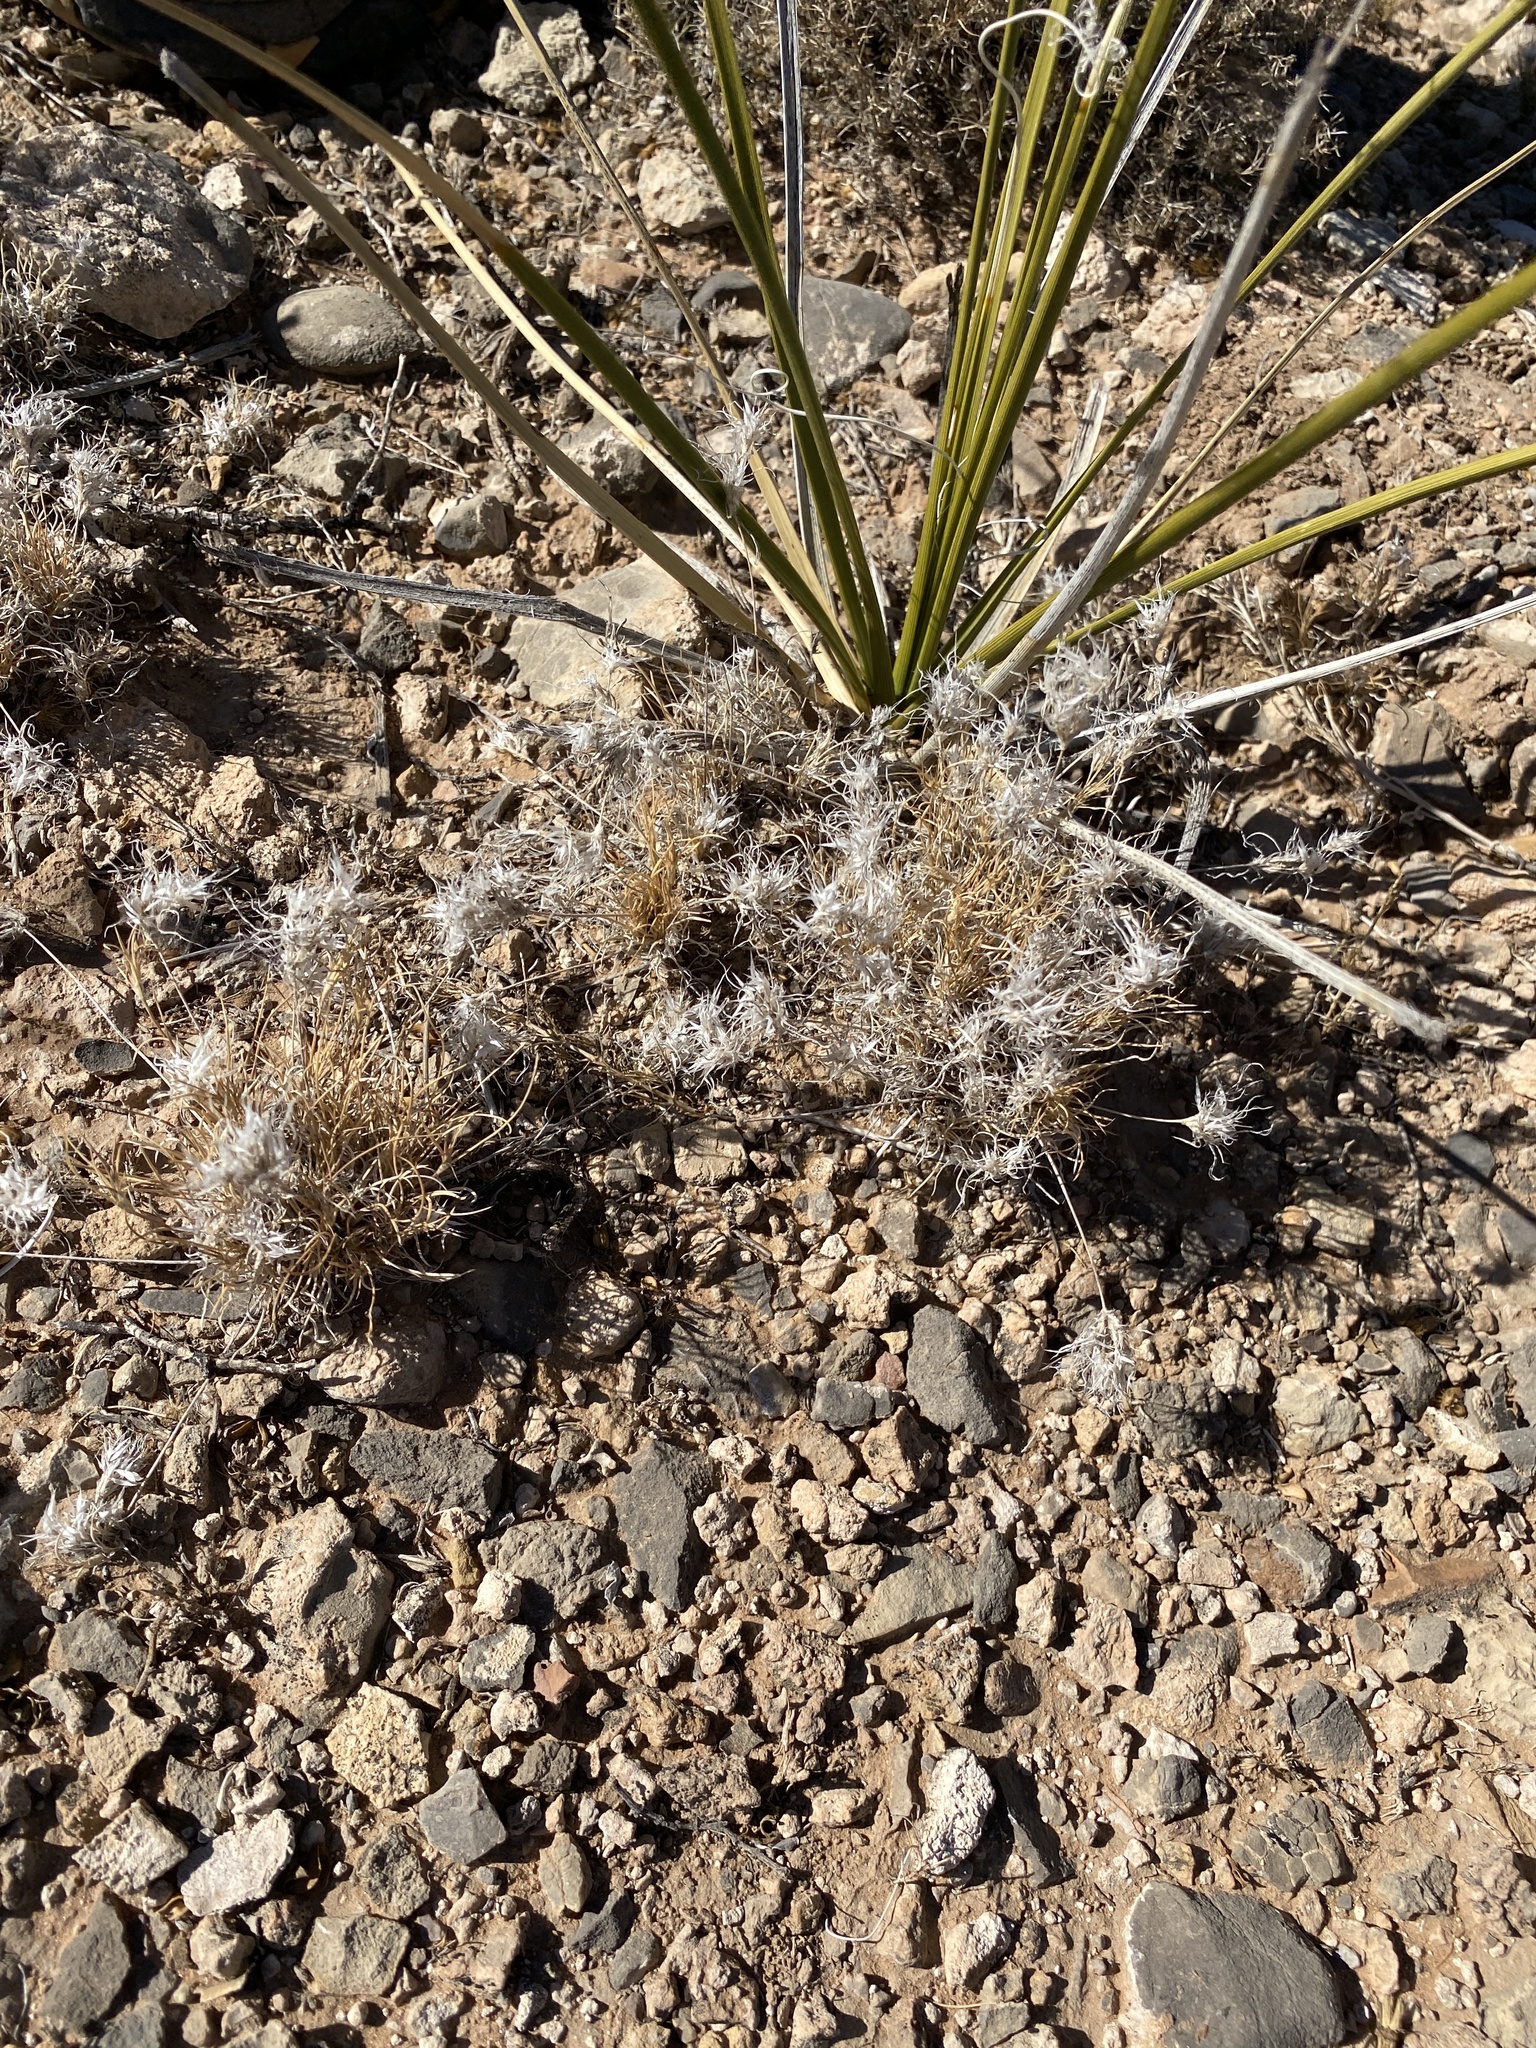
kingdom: Plantae
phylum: Tracheophyta
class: Liliopsida
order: Poales
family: Poaceae
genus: Dasyochloa
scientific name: Dasyochloa pulchella
